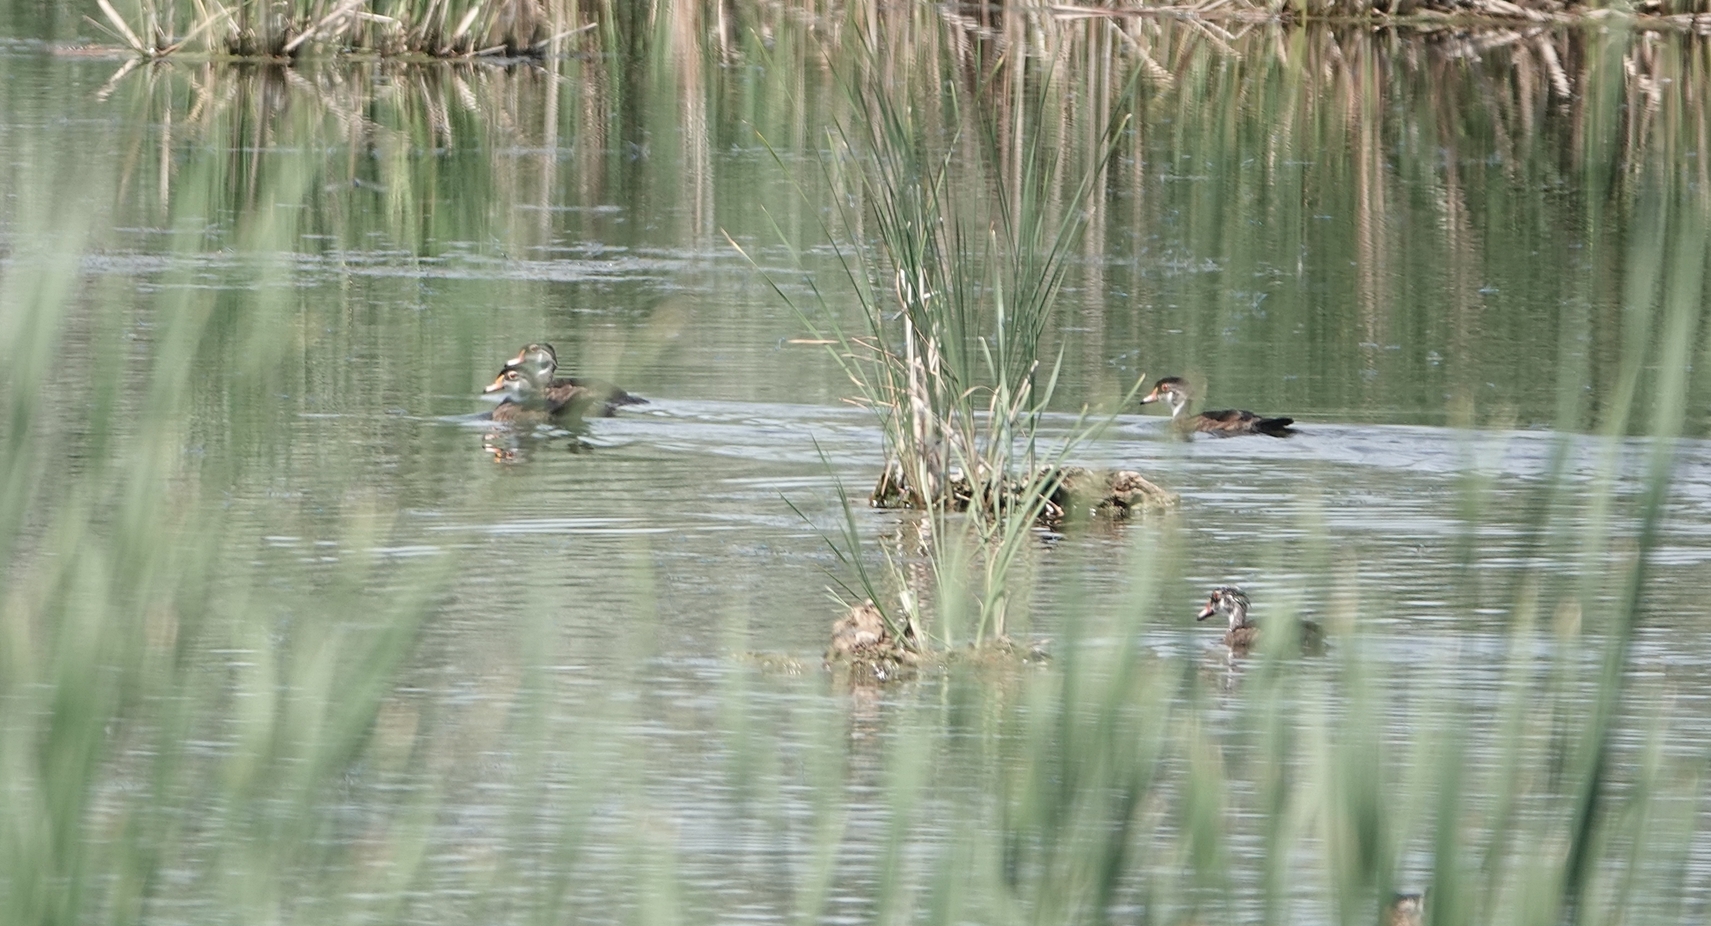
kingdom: Animalia
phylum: Chordata
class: Aves
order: Anseriformes
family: Anatidae
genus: Aix
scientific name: Aix sponsa
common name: Wood duck
